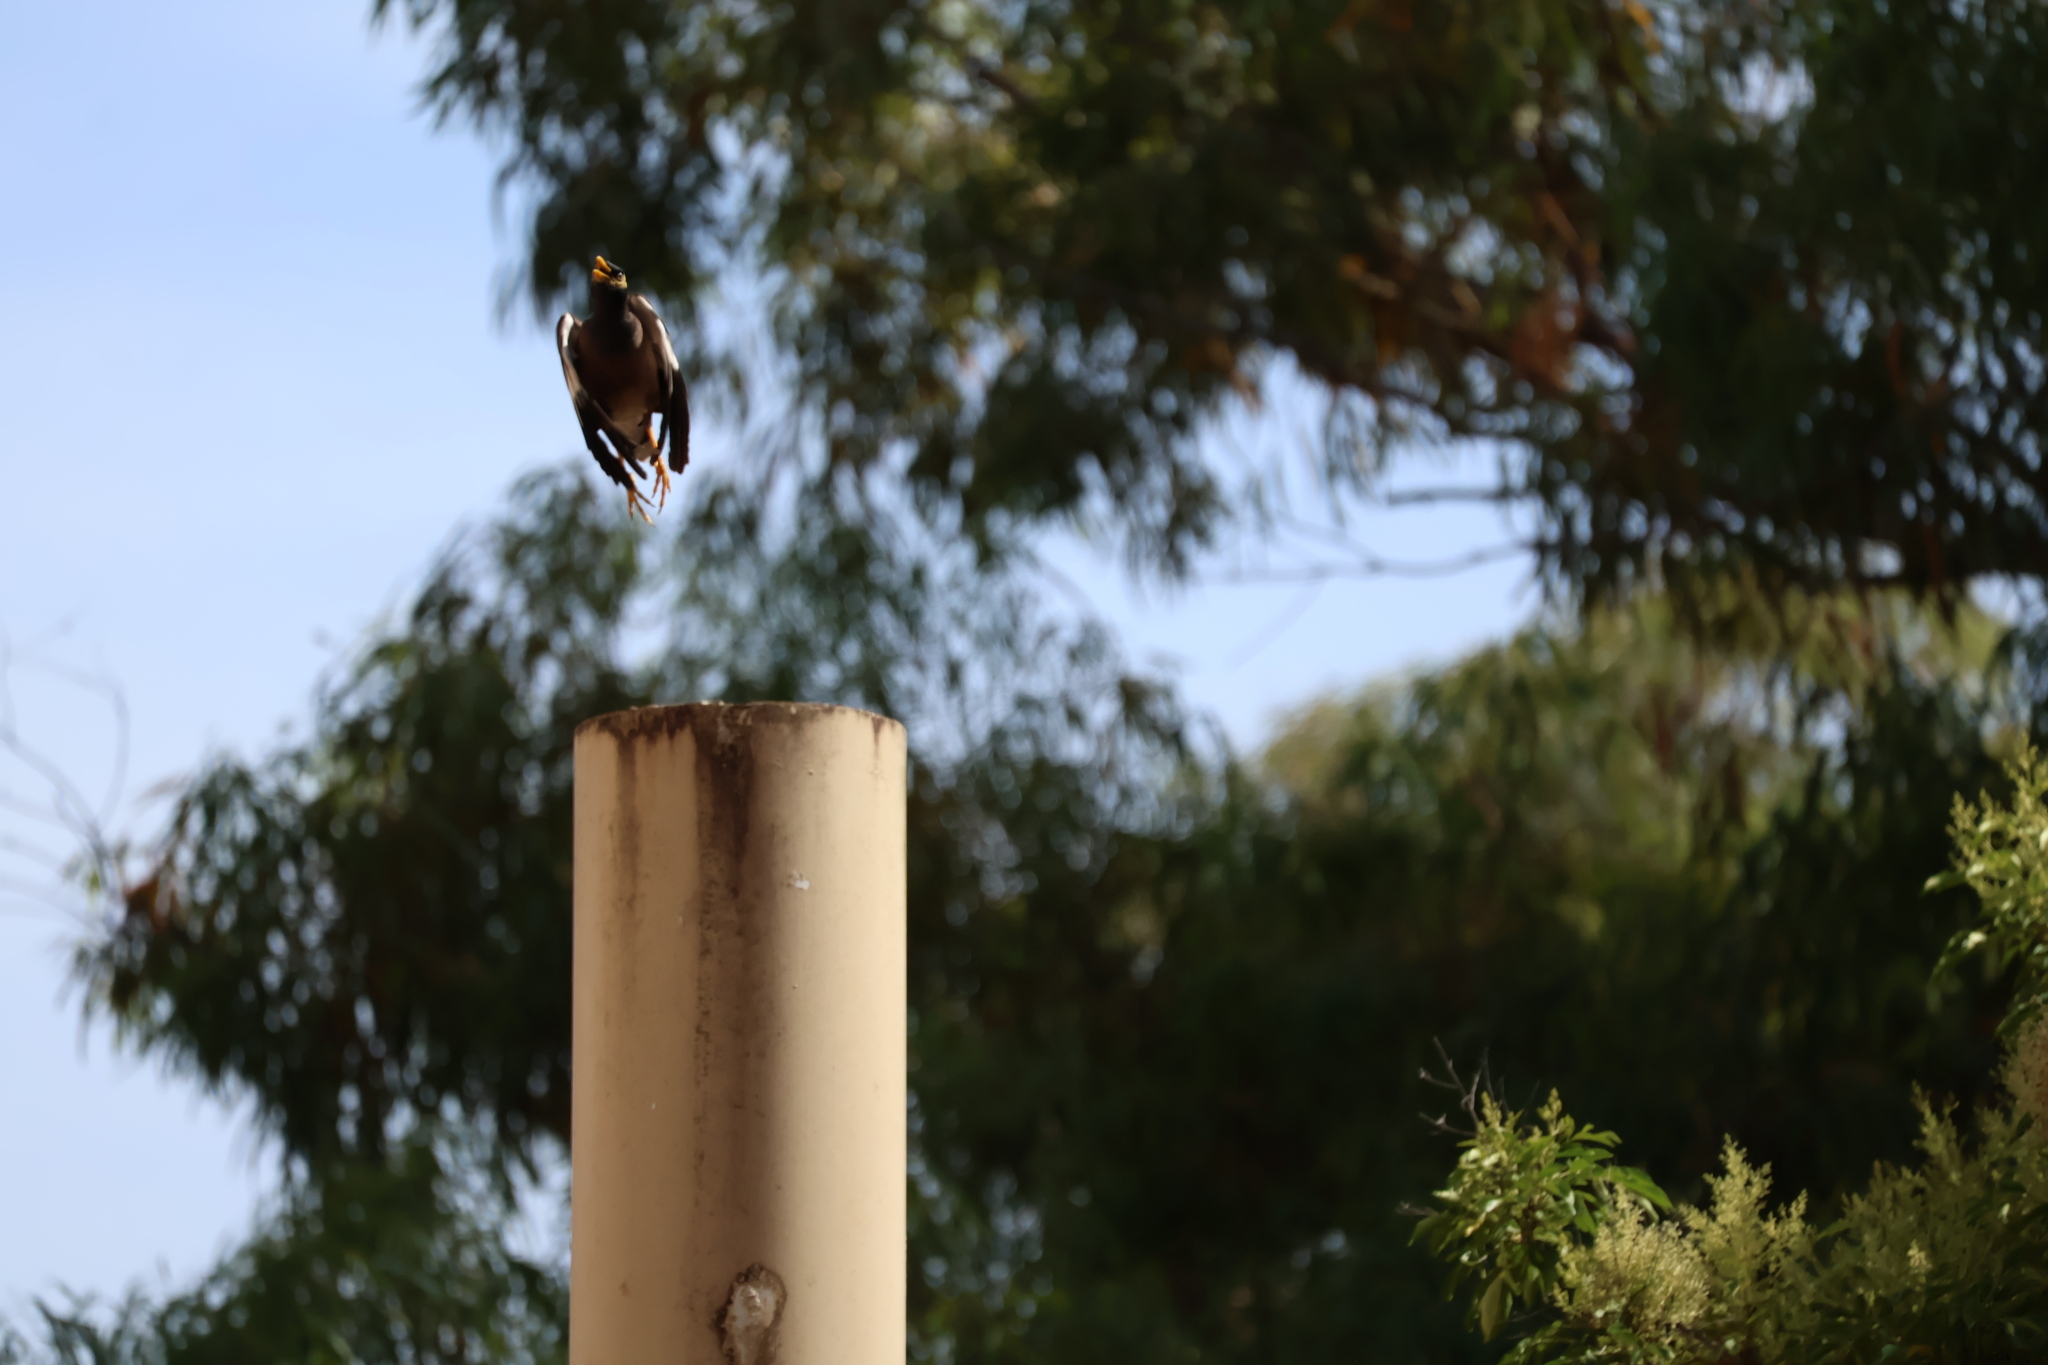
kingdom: Animalia
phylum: Chordata
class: Aves
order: Passeriformes
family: Sturnidae
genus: Acridotheres
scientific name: Acridotheres tristis
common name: Common myna
